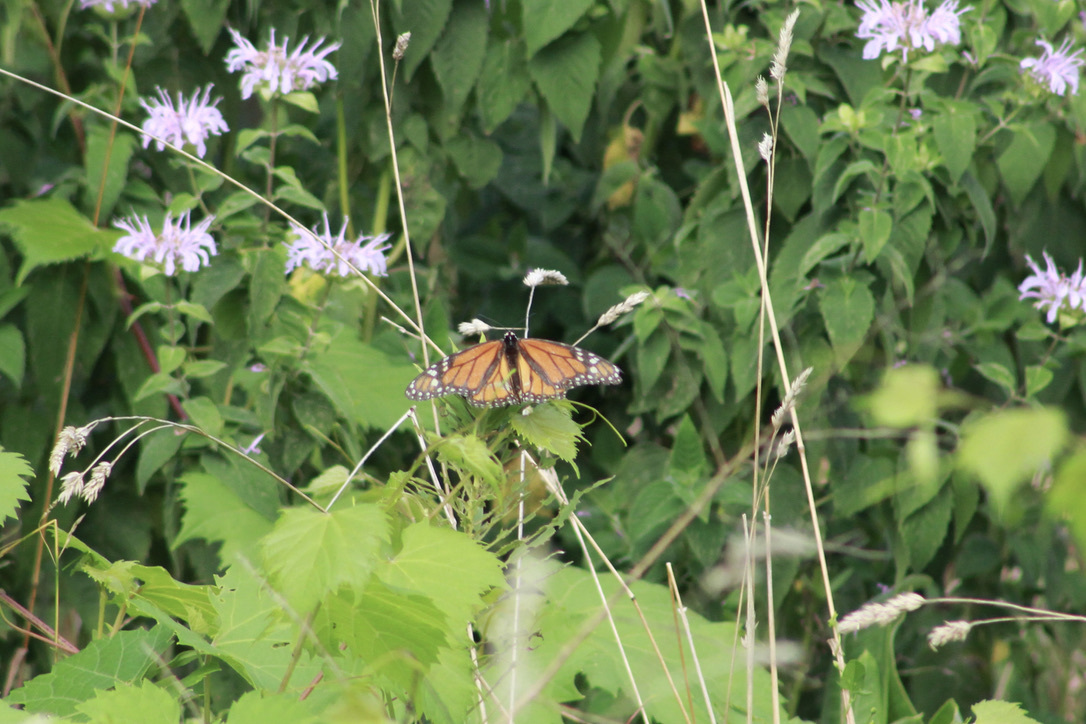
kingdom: Animalia
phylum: Arthropoda
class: Insecta
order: Lepidoptera
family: Nymphalidae
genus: Danaus
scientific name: Danaus plexippus
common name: Monarch
